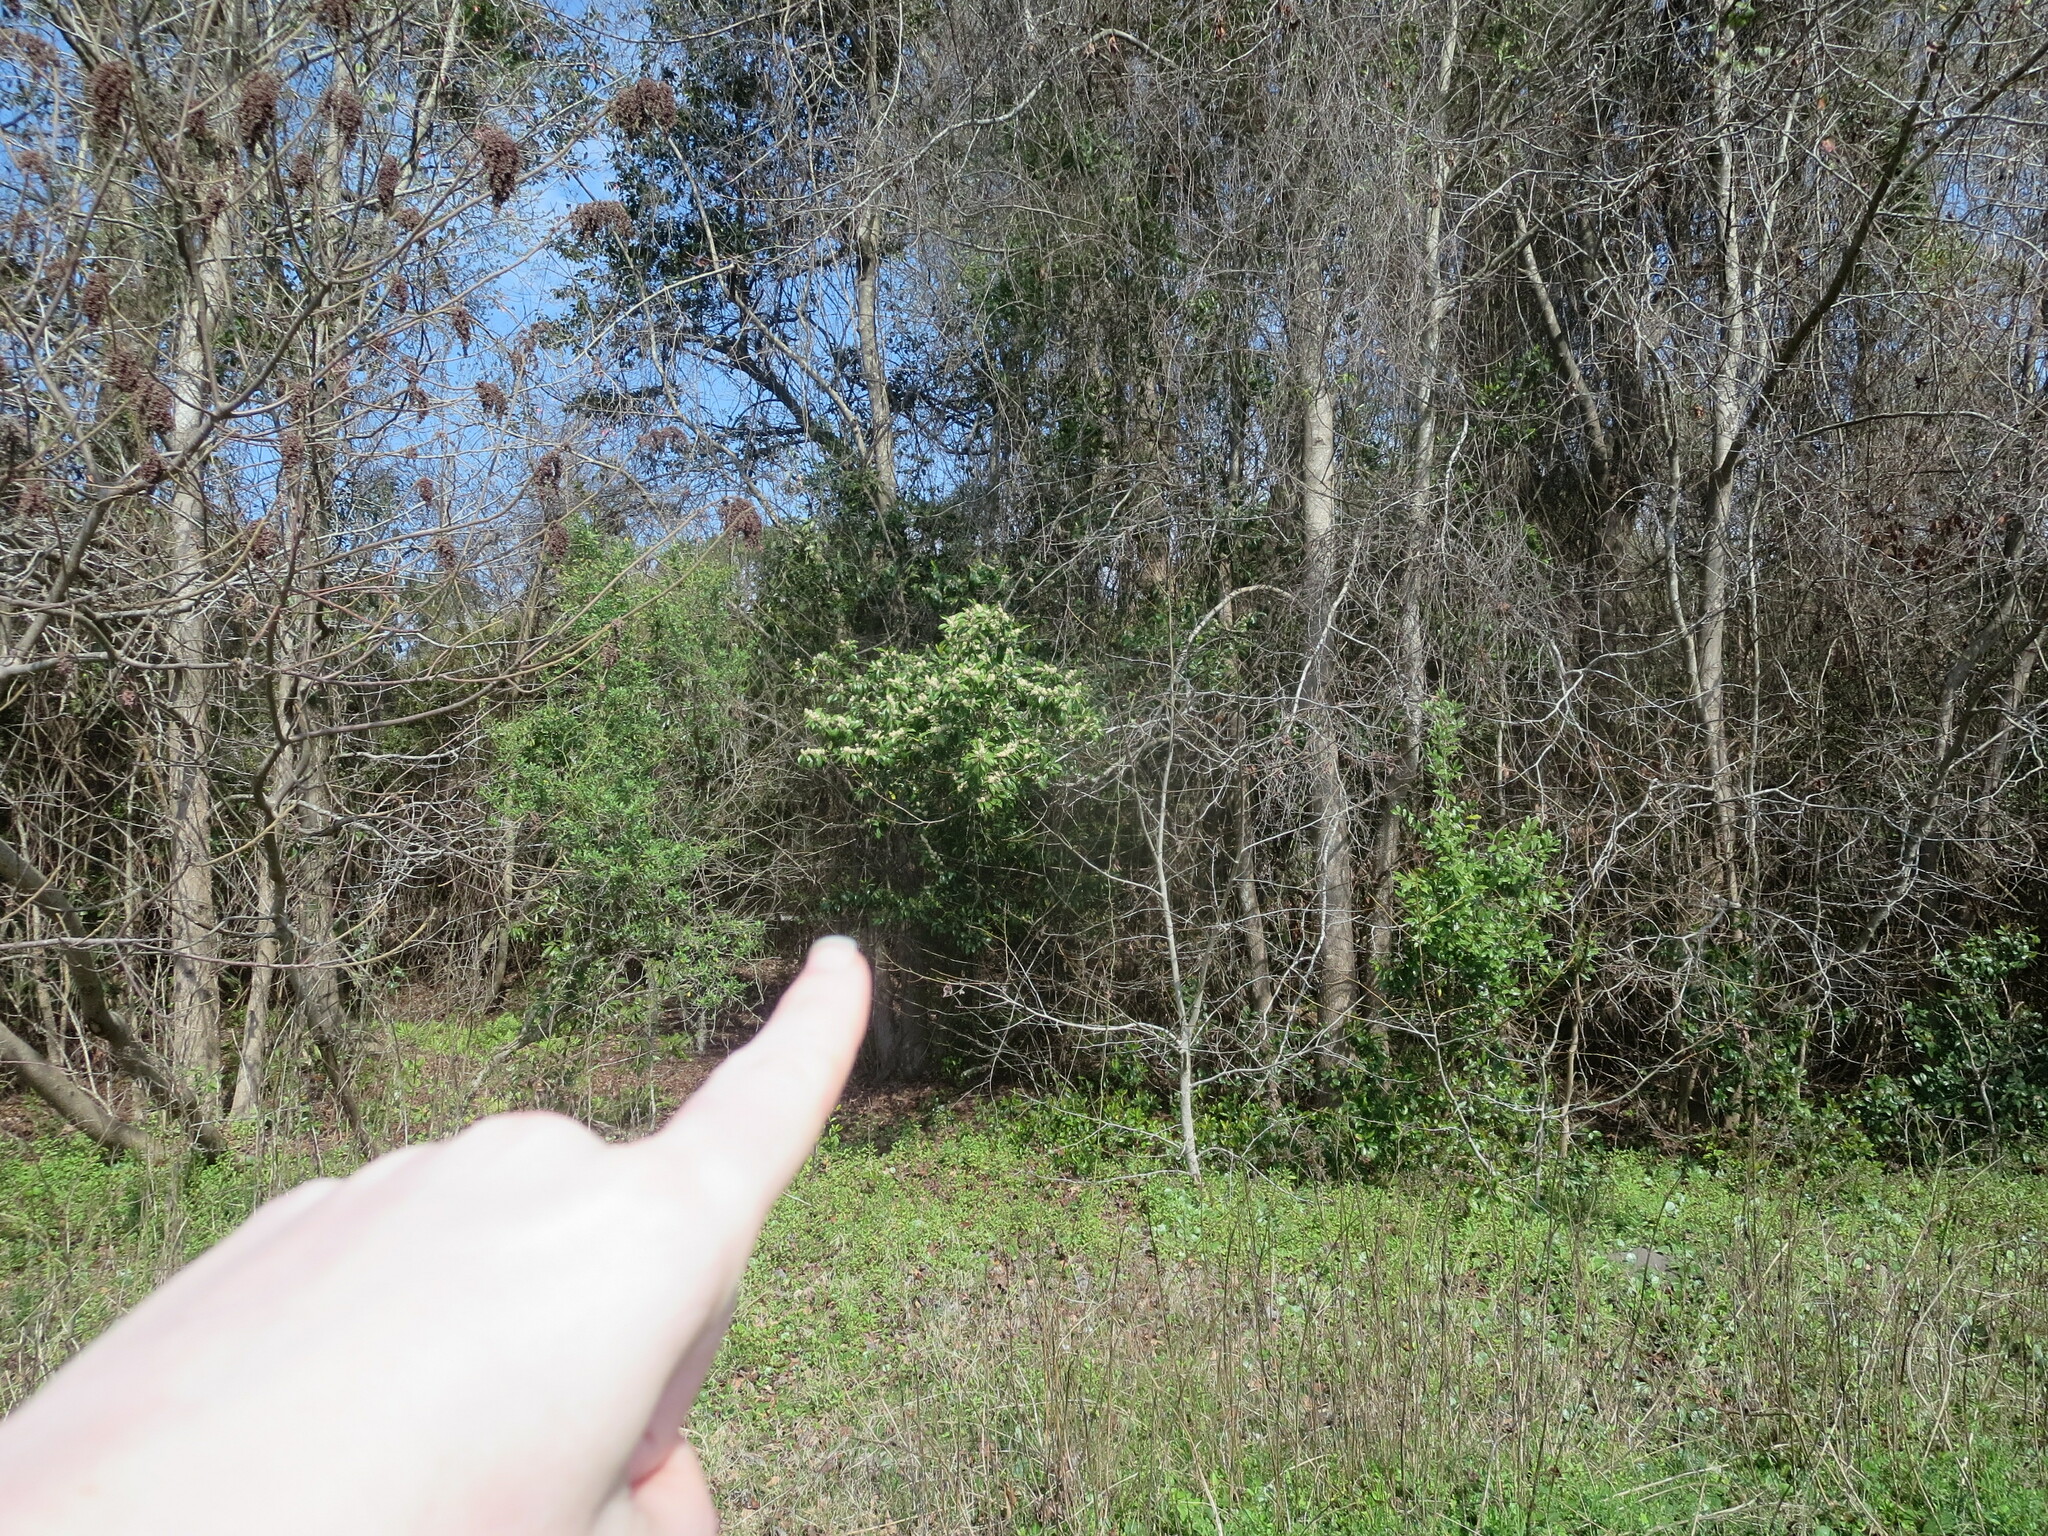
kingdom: Plantae
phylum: Tracheophyta
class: Magnoliopsida
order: Rosales
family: Rosaceae
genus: Prunus
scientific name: Prunus caroliniana
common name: Carolina laurel cherry
